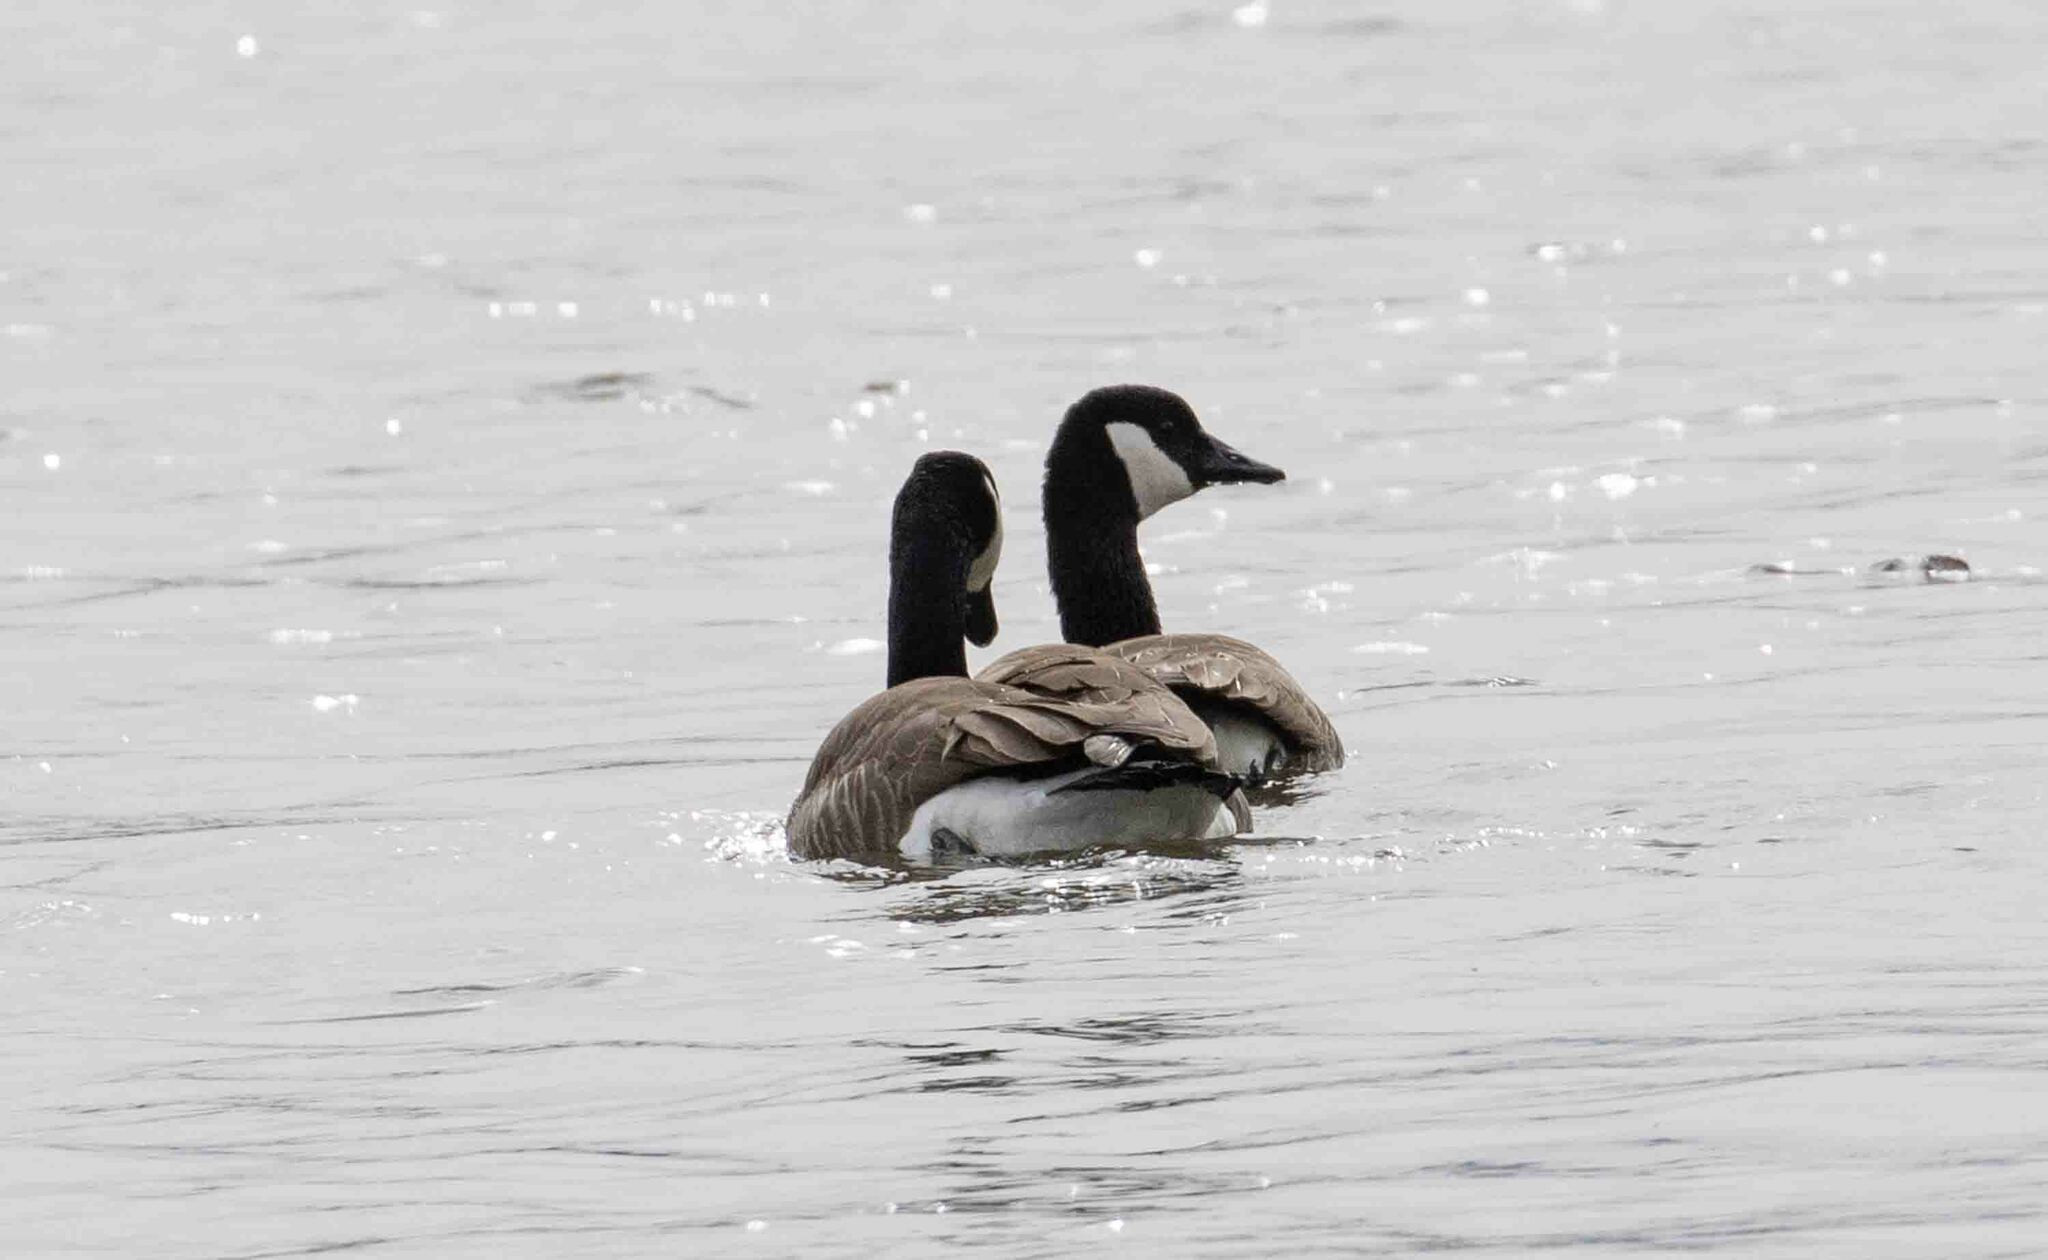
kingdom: Animalia
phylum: Chordata
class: Aves
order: Anseriformes
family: Anatidae
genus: Branta
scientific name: Branta canadensis
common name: Canada goose
